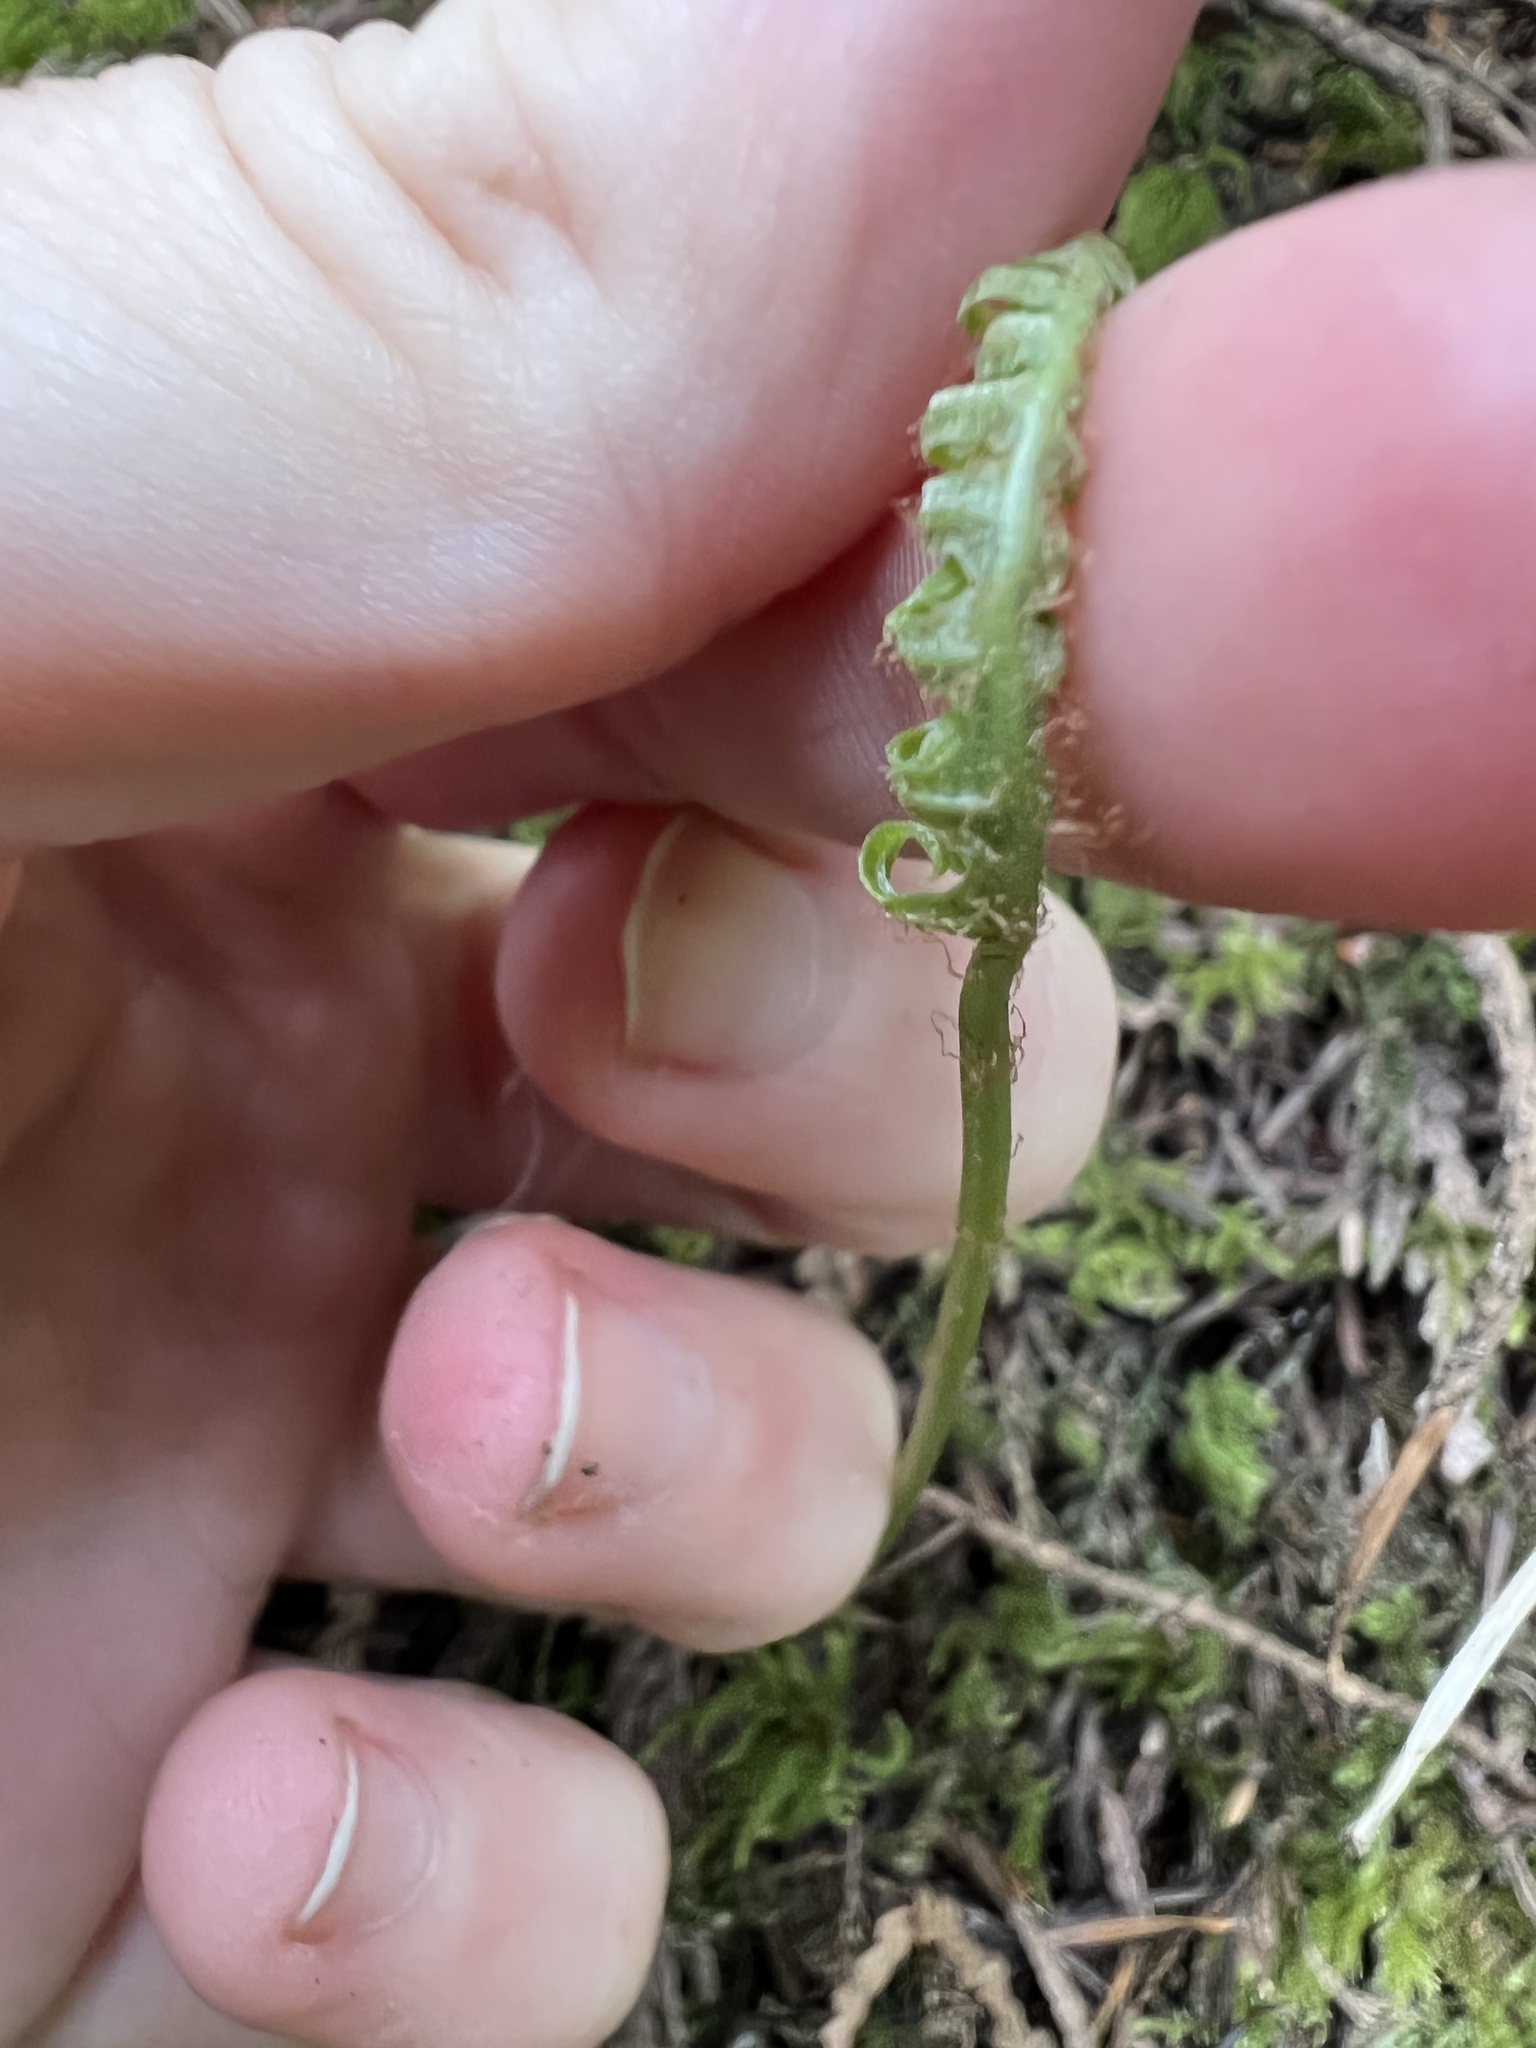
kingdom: Plantae
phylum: Tracheophyta
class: Polypodiopsida
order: Polypodiales
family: Polypodiaceae
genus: Polypodium
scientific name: Polypodium glycyrrhiza
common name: Licorice fern
